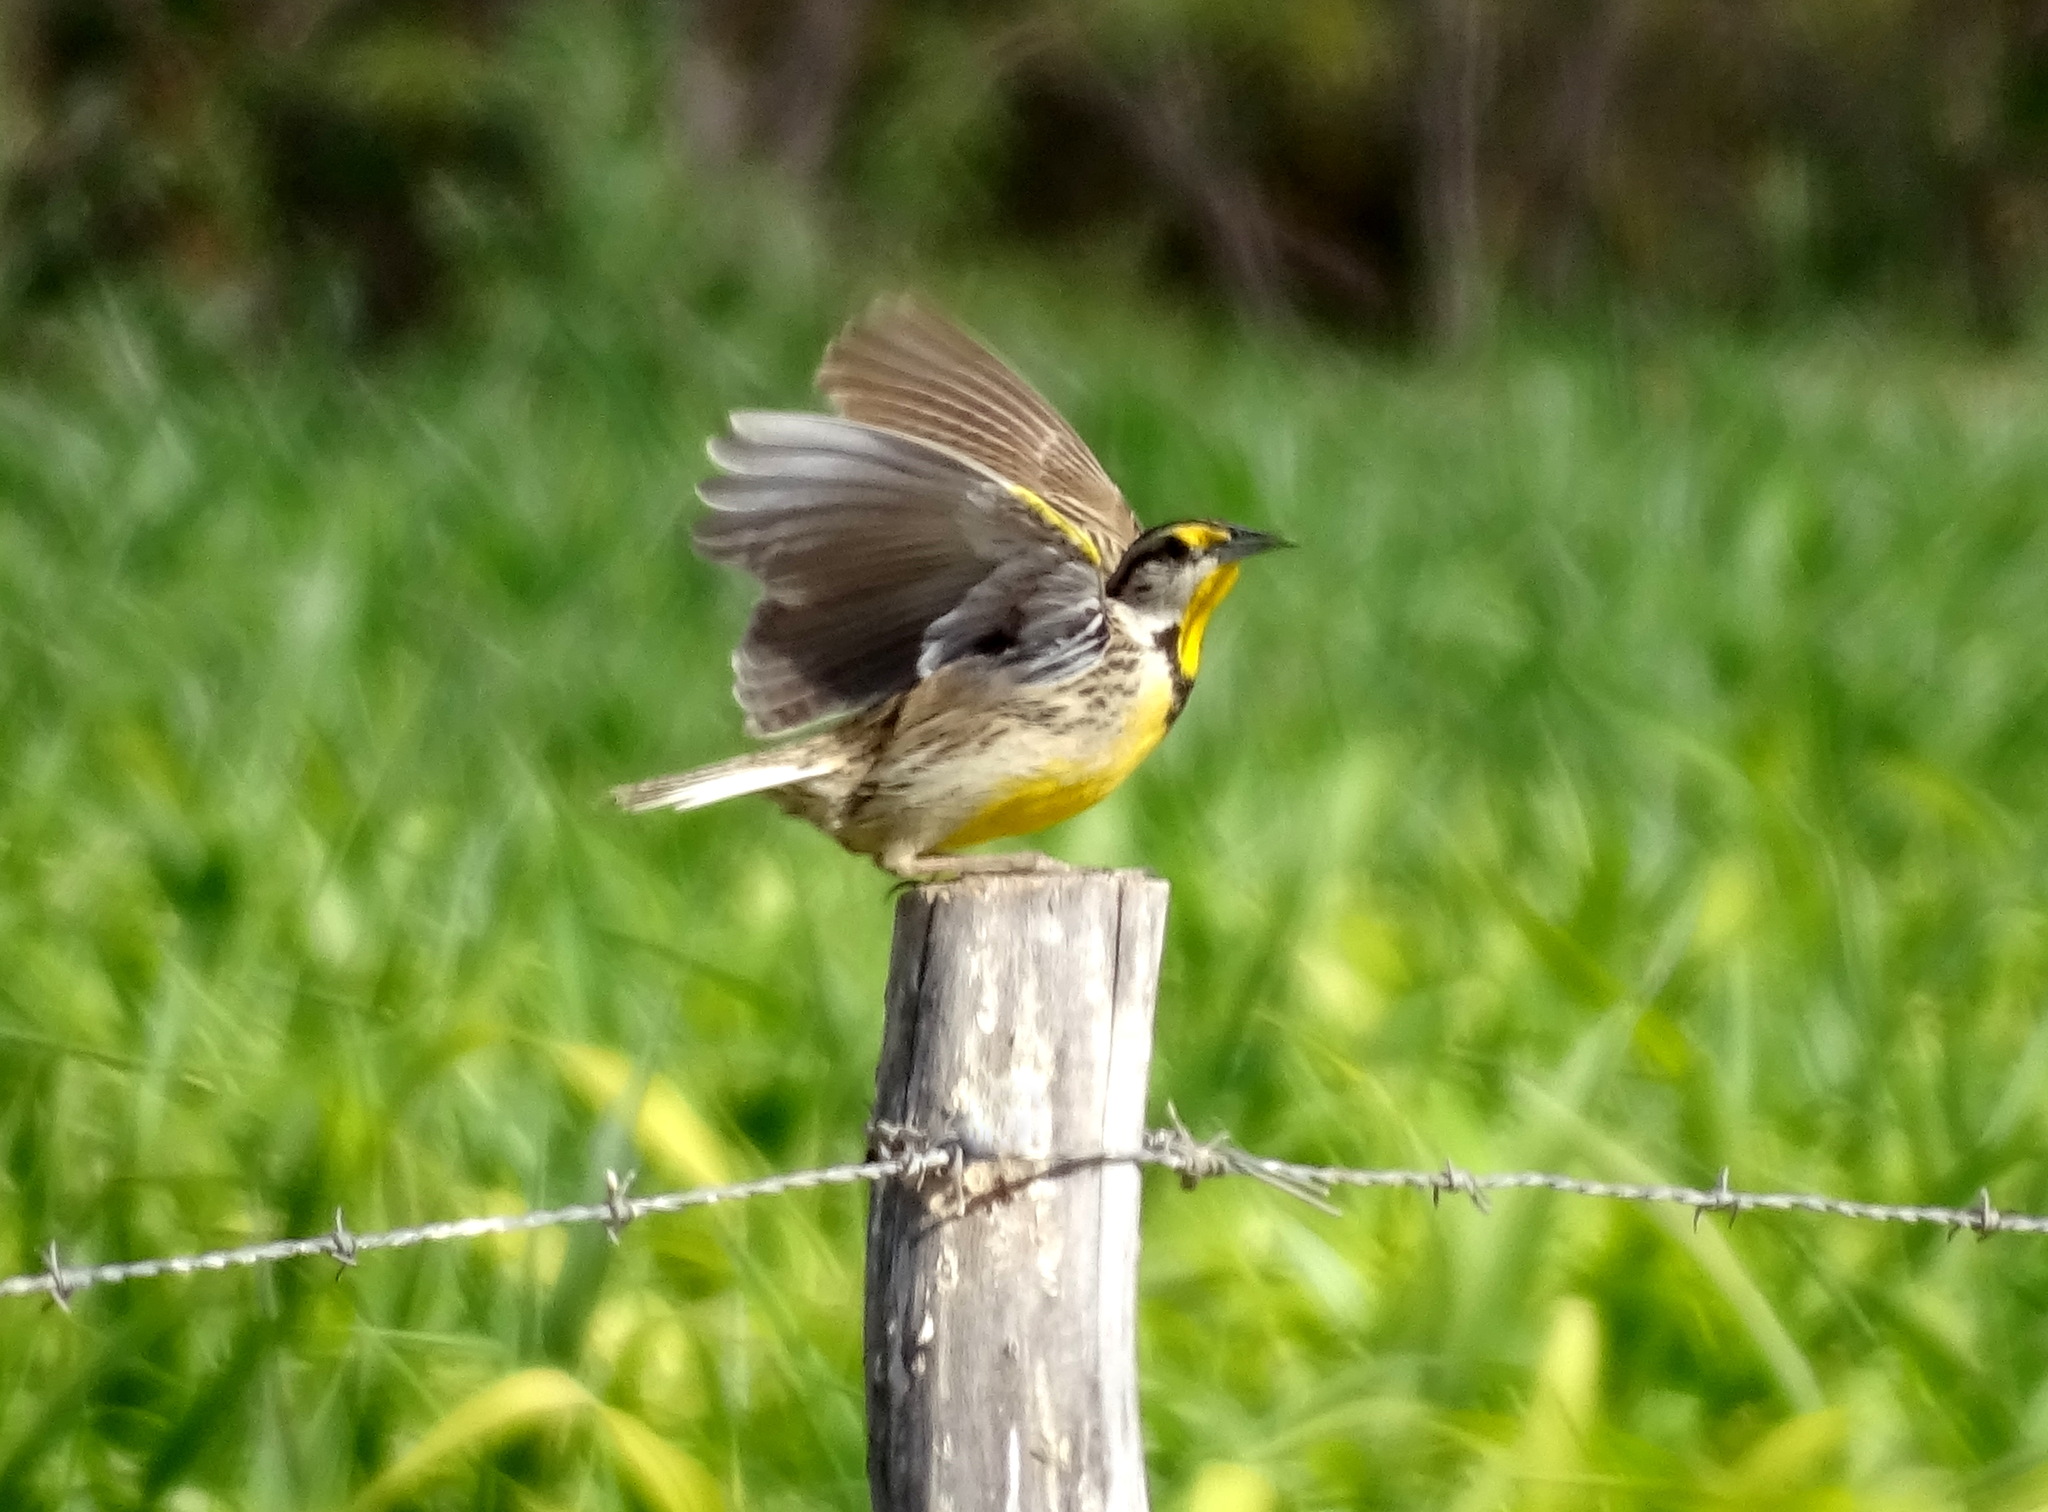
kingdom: Animalia
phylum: Chordata
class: Aves
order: Passeriformes
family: Icteridae
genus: Sturnella
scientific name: Sturnella lilianae
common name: Lilian's meadowlark
